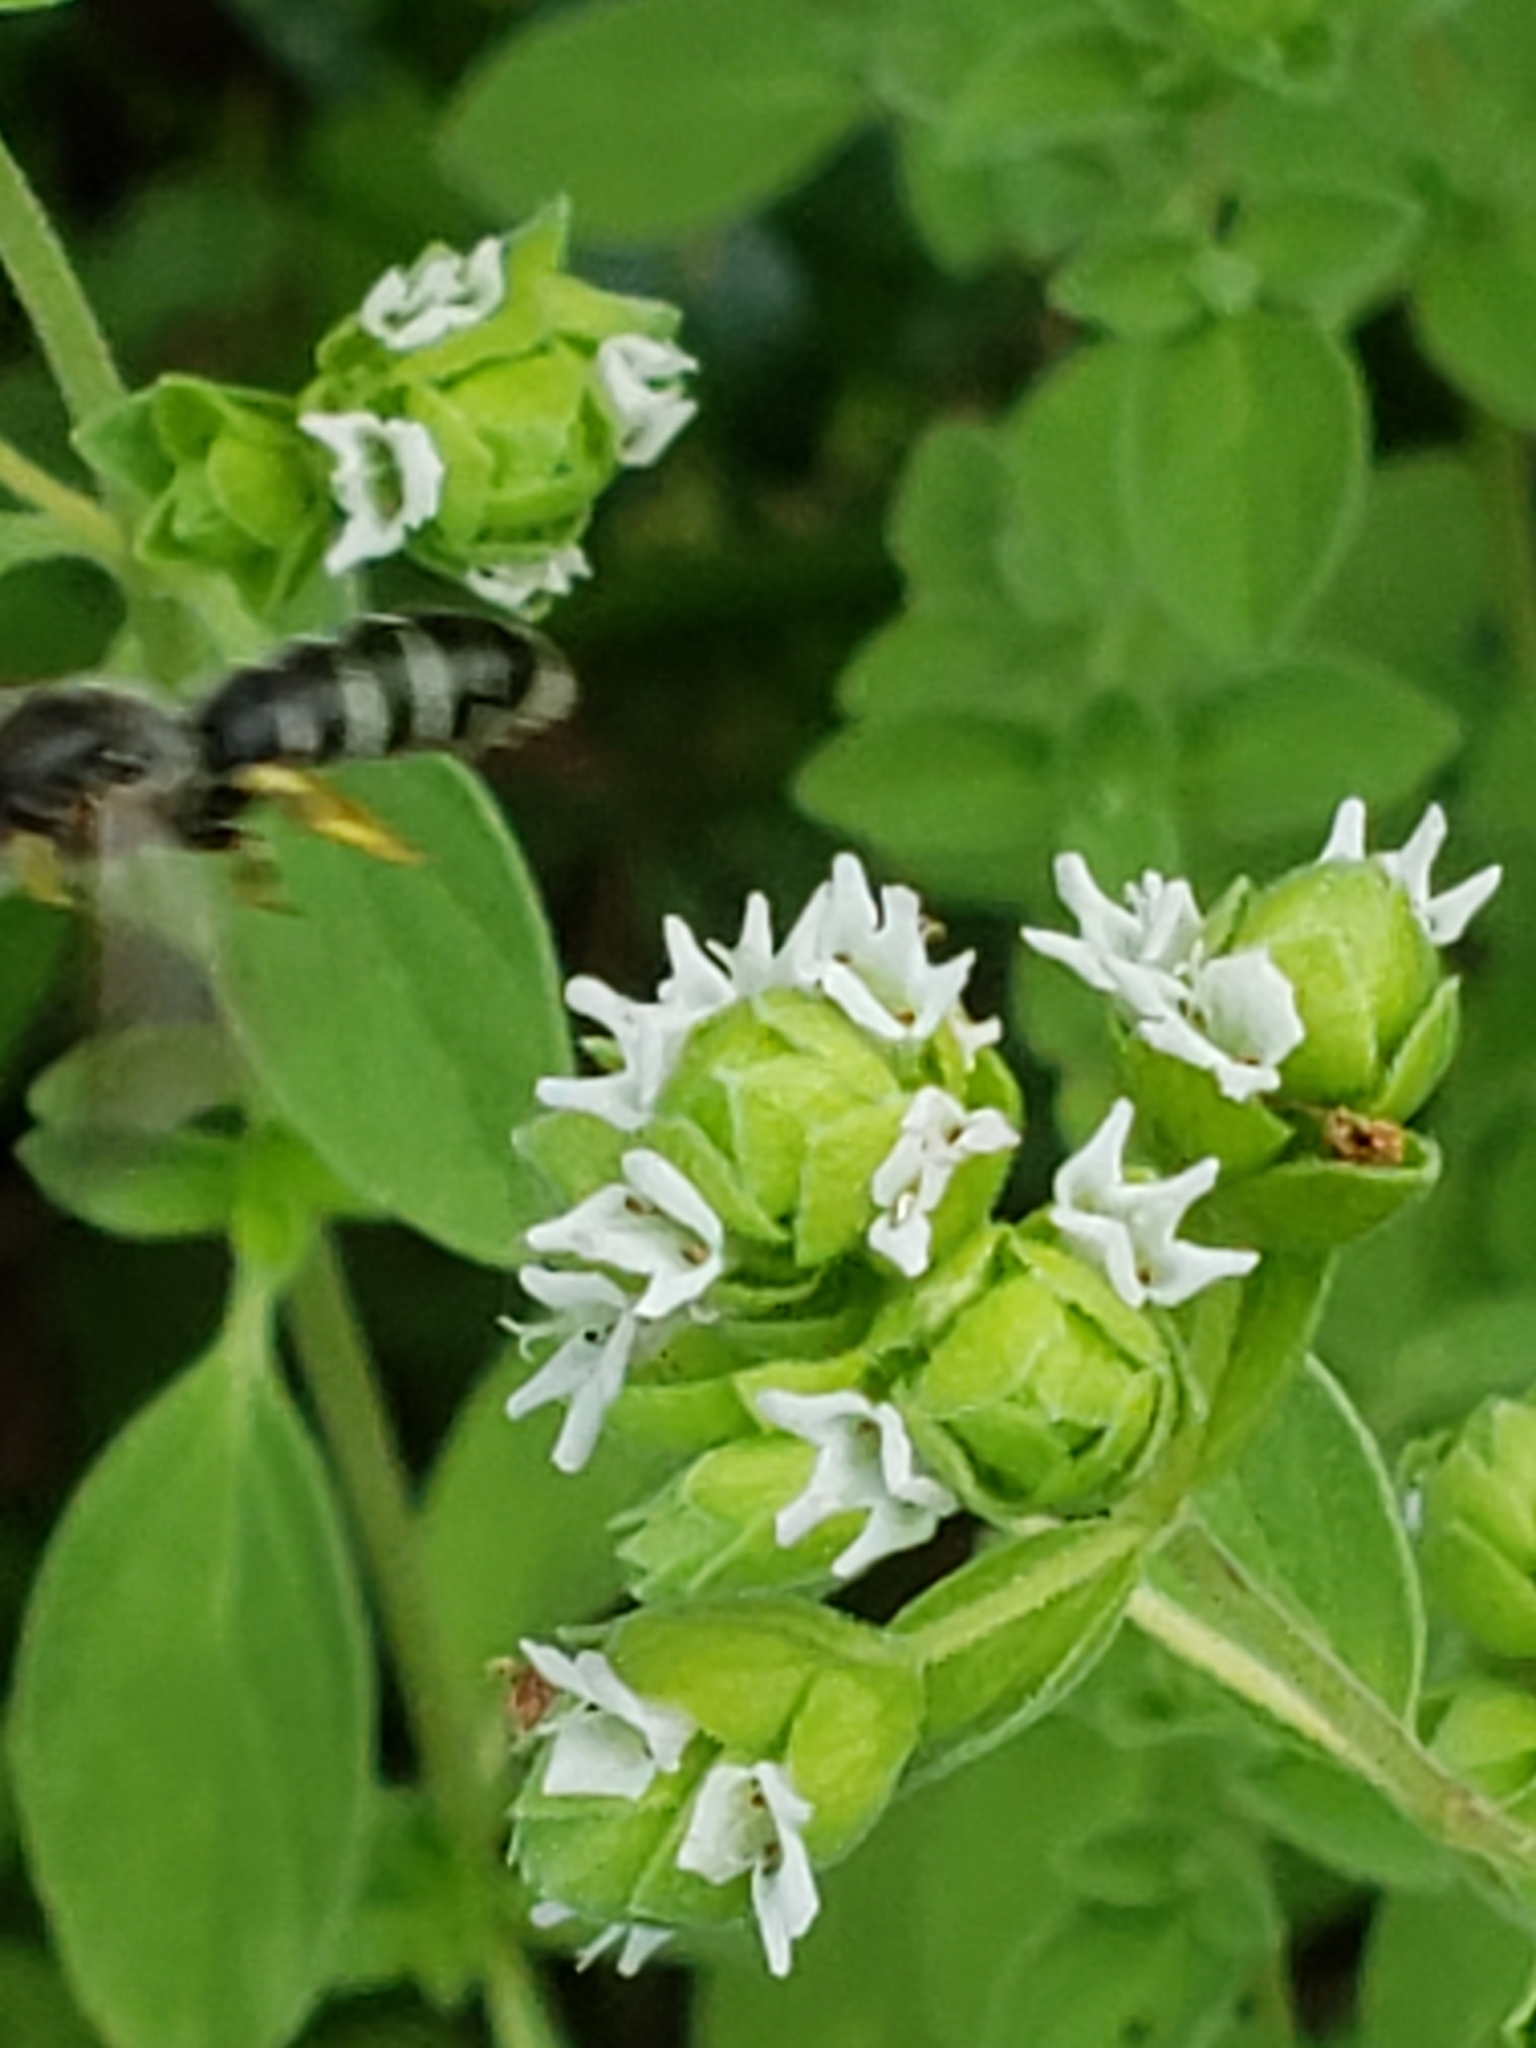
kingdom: Animalia
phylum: Arthropoda
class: Insecta
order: Hymenoptera
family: Halictidae
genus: Halictus
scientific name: Halictus rubicundus
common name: Orange-legged furrow bee
